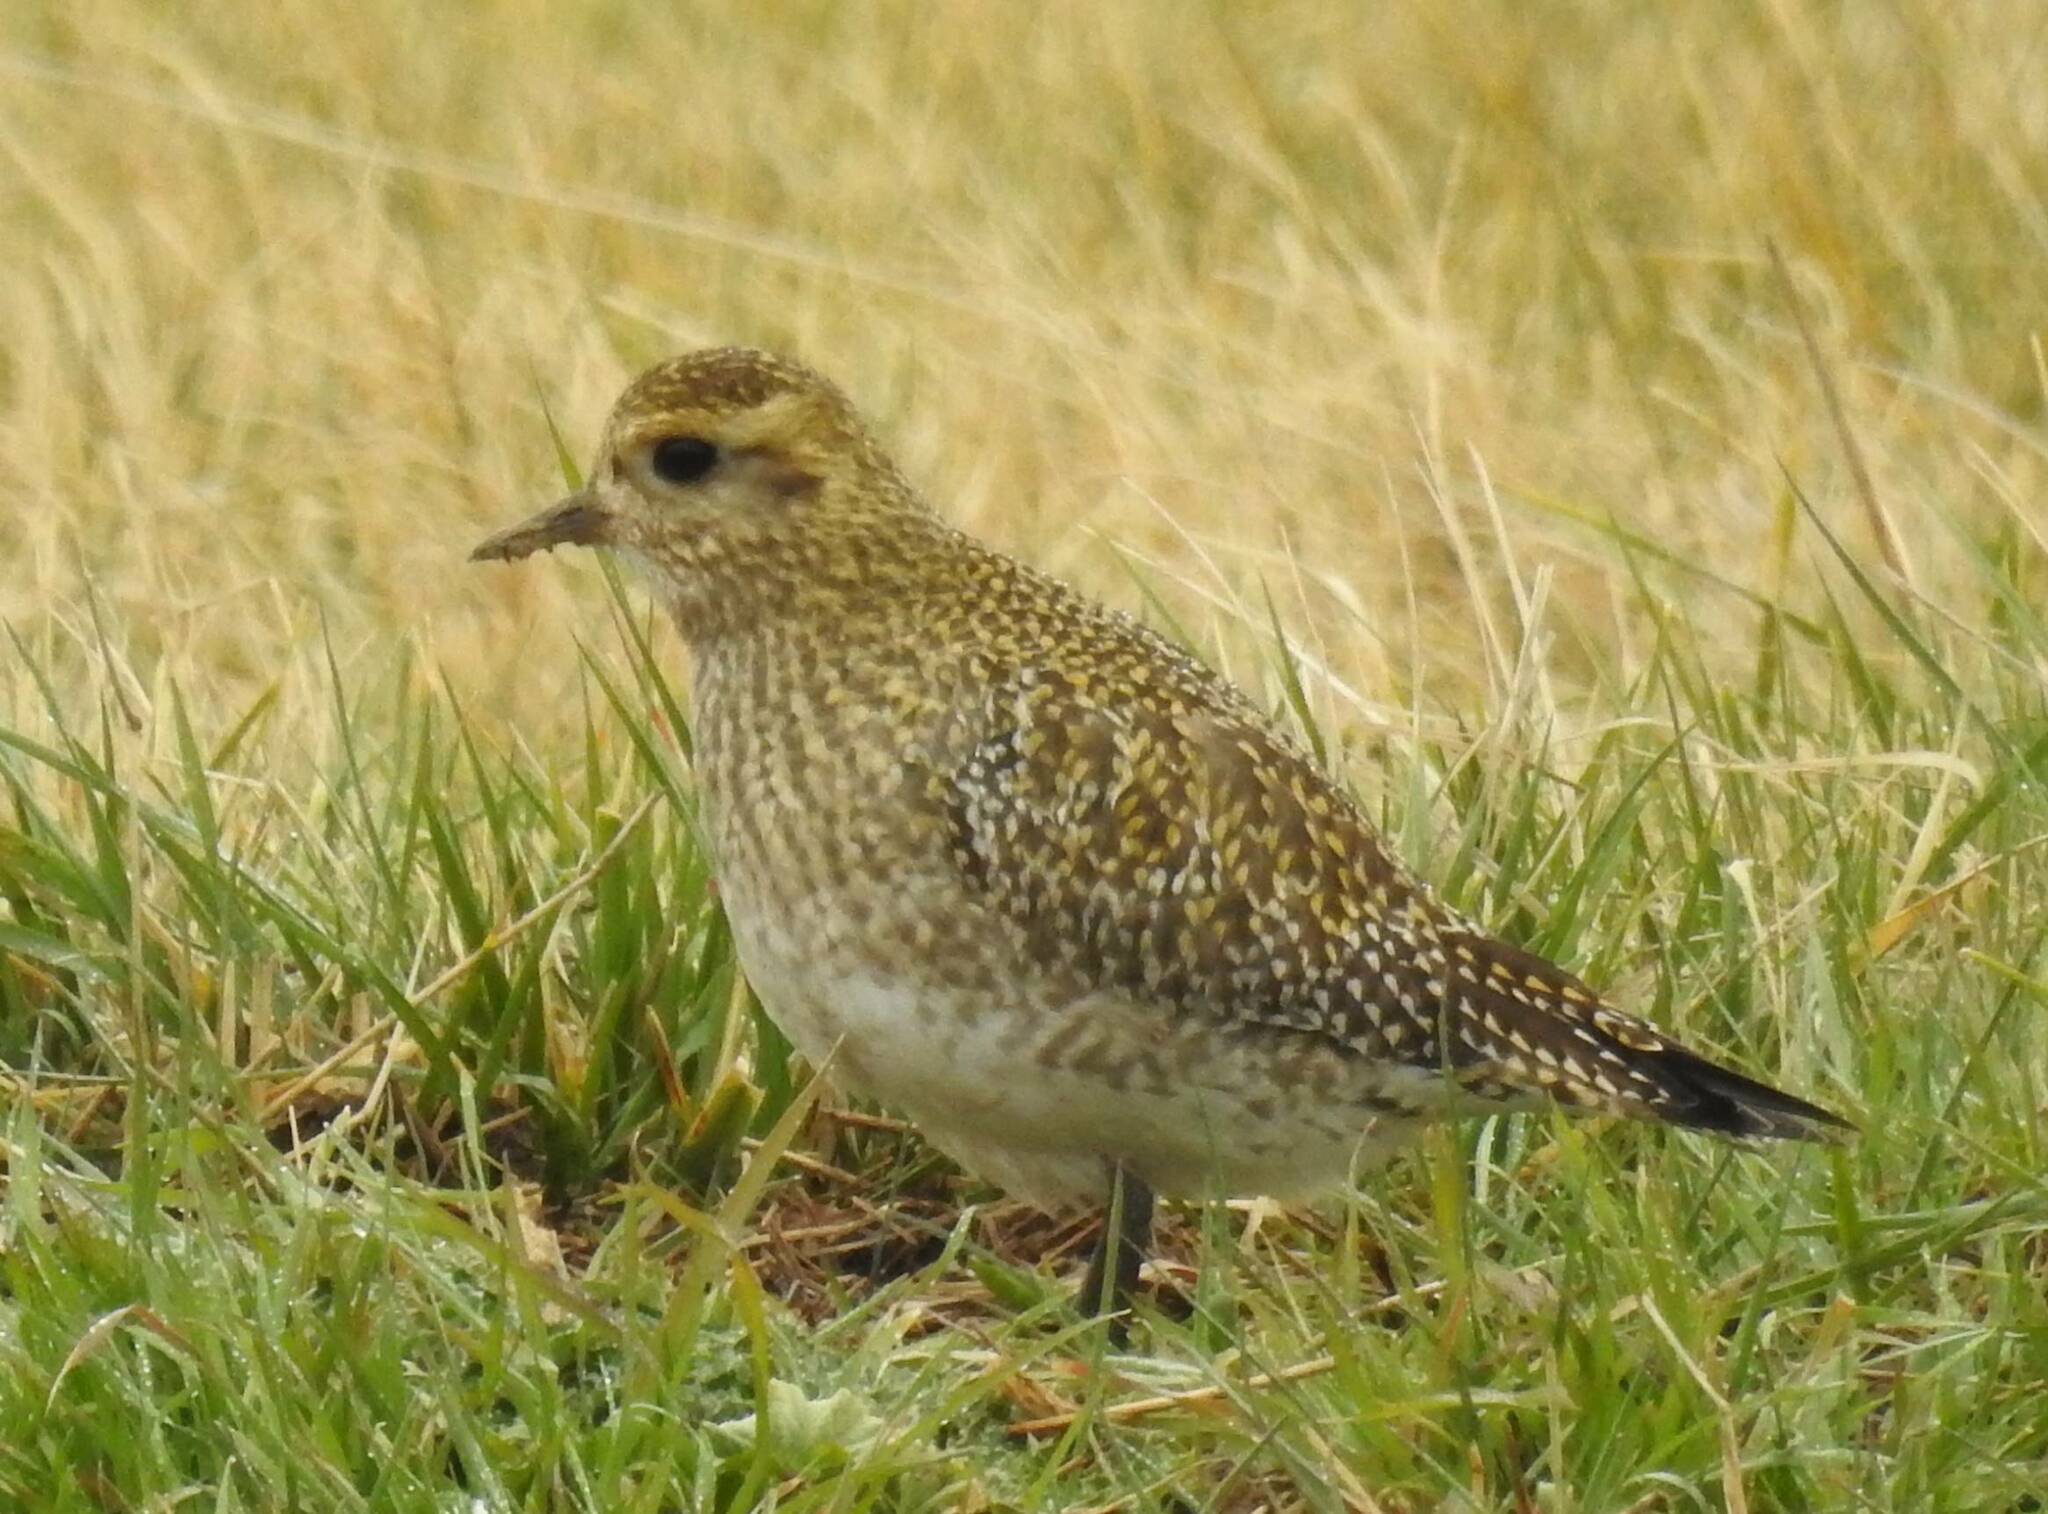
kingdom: Animalia
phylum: Chordata
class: Aves
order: Charadriiformes
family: Charadriidae
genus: Pluvialis
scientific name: Pluvialis apricaria
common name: European golden plover
